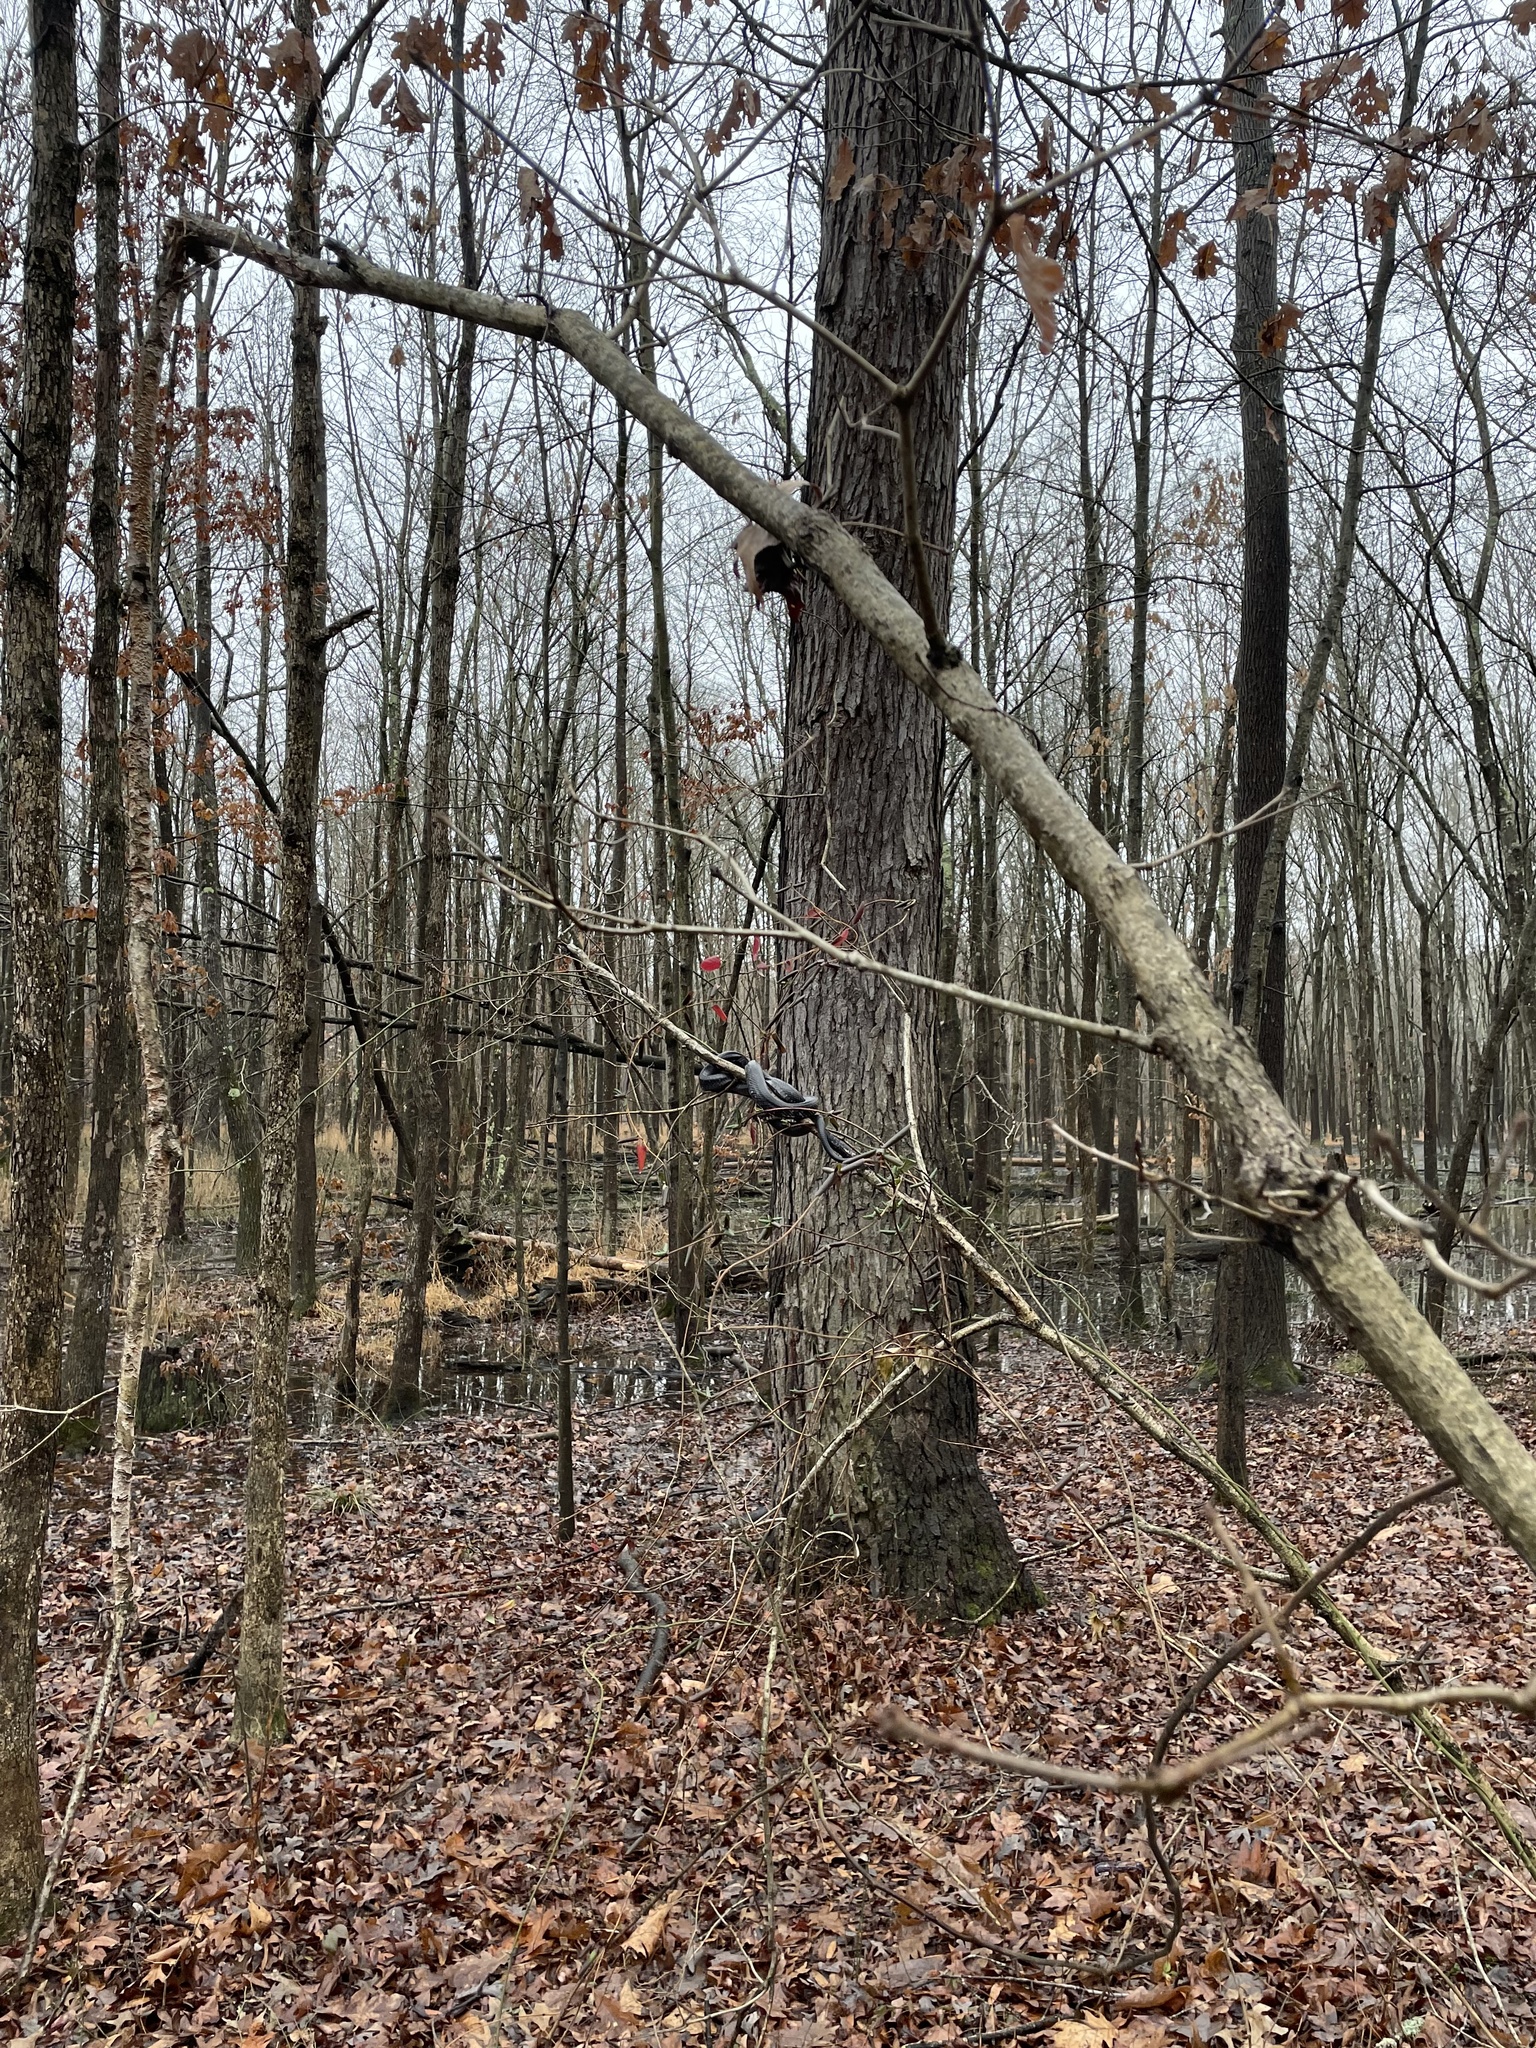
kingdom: Animalia
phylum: Chordata
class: Squamata
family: Colubridae
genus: Pantherophis
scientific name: Pantherophis alleghaniensis
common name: Eastern rat snake
